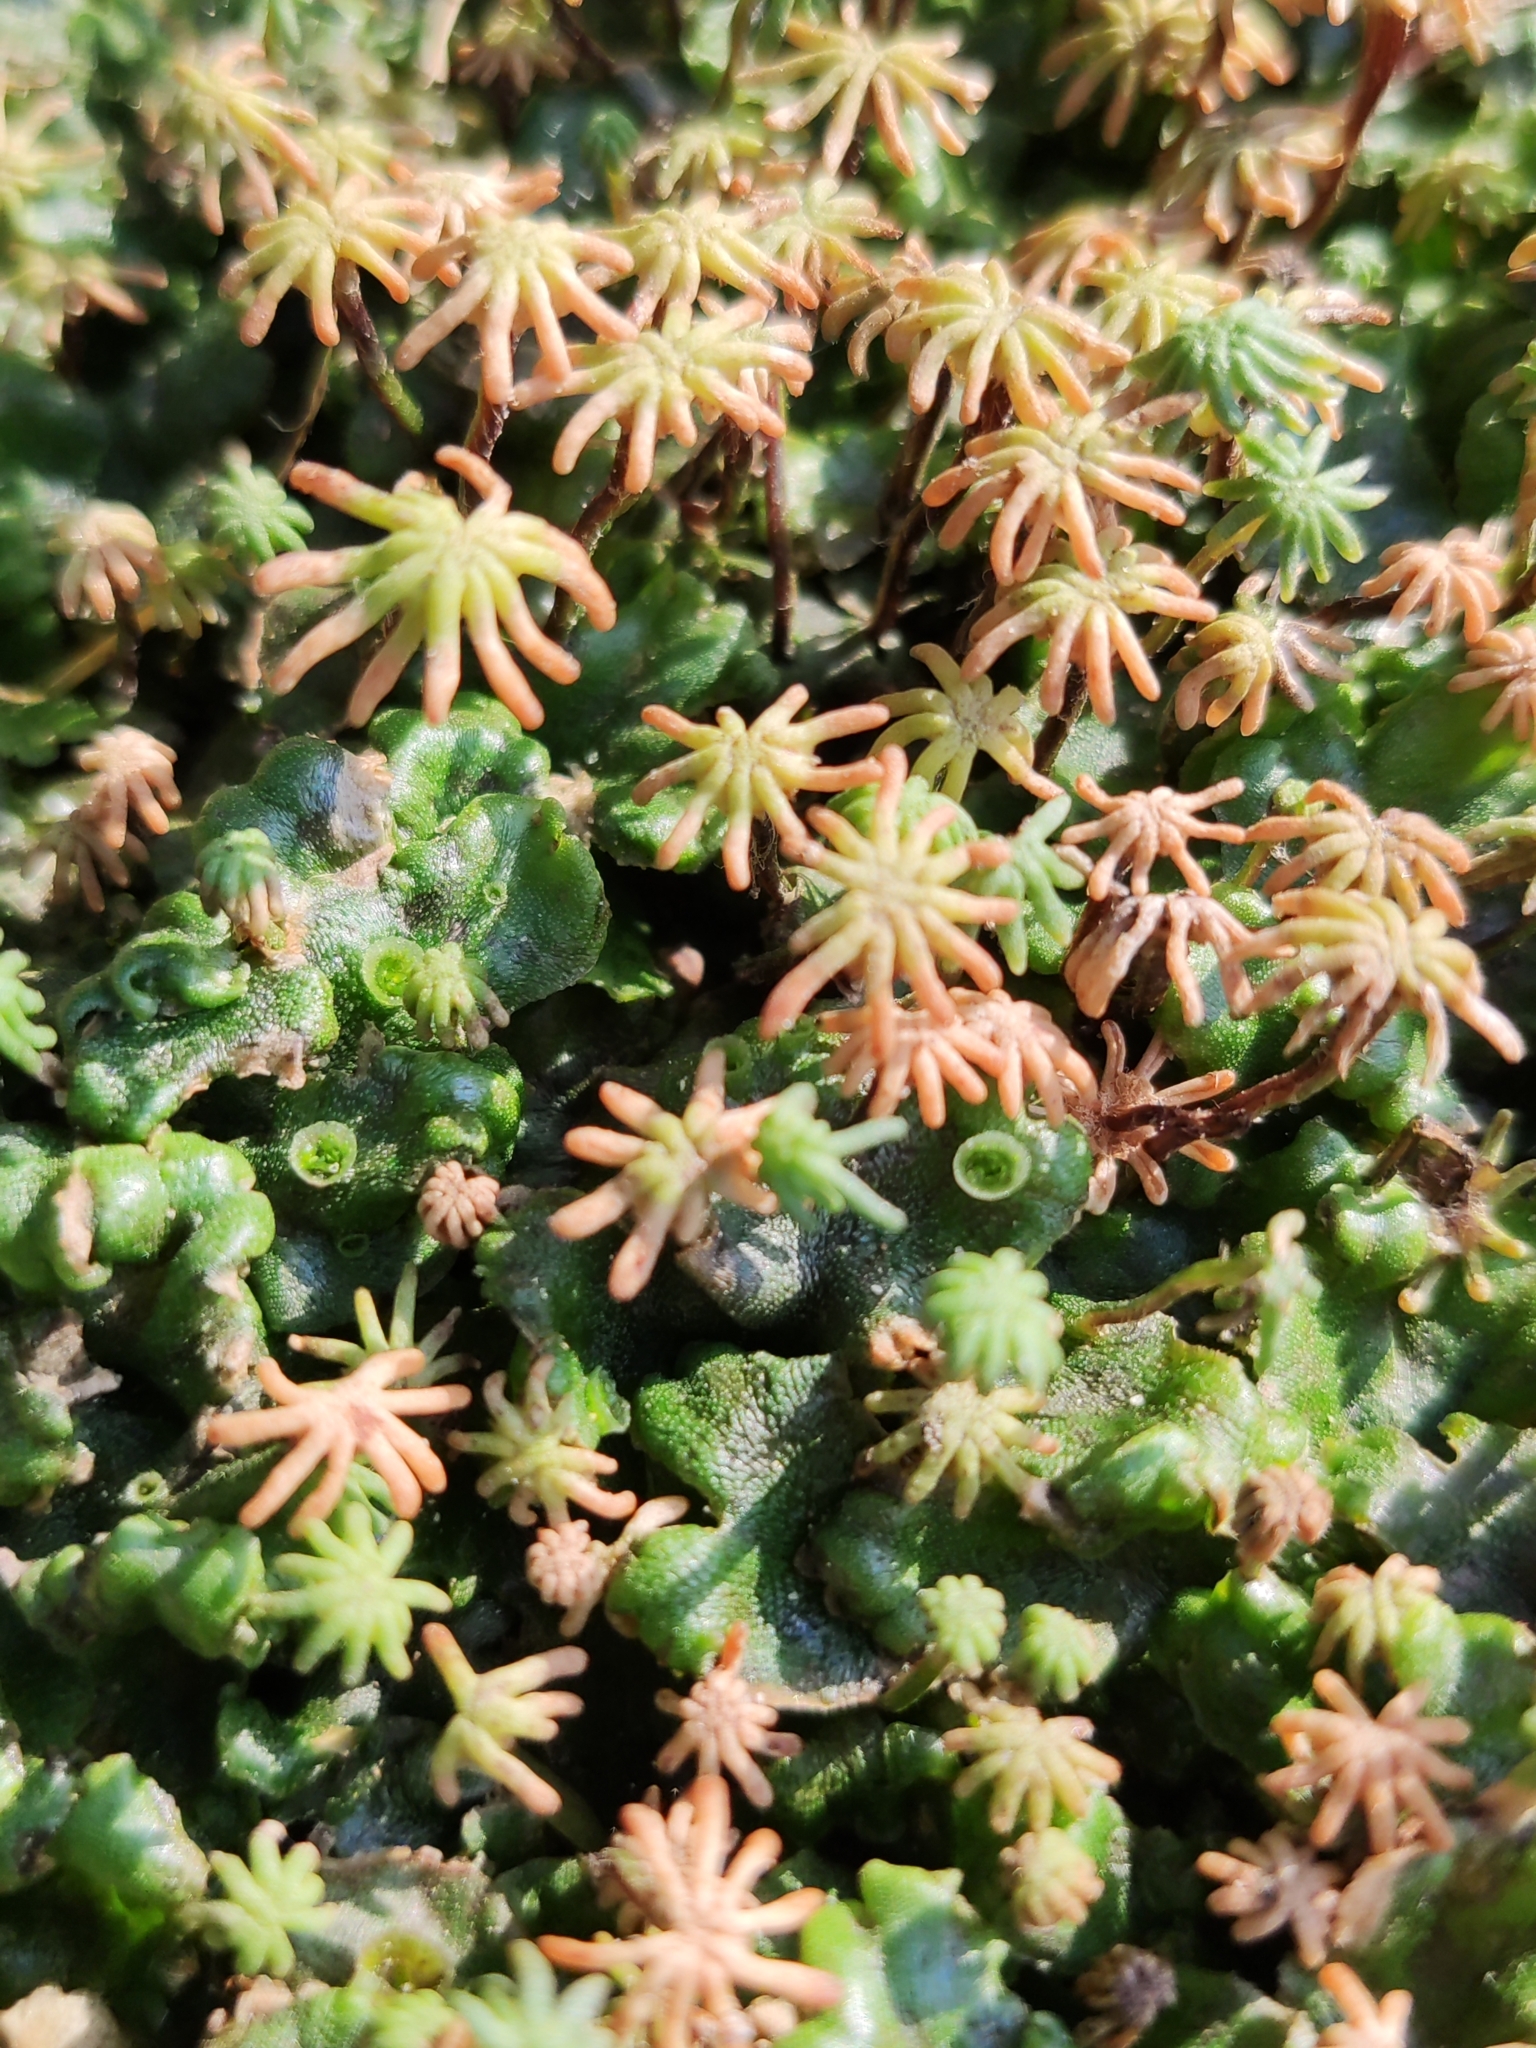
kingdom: Plantae
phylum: Marchantiophyta
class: Marchantiopsida
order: Marchantiales
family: Marchantiaceae
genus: Marchantia
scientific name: Marchantia polymorpha
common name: Common liverwort
